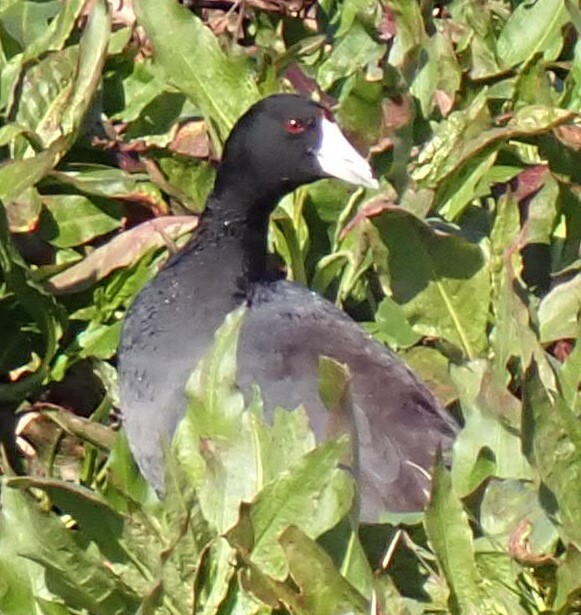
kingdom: Animalia
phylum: Chordata
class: Aves
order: Gruiformes
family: Rallidae
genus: Fulica
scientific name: Fulica americana
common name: American coot
